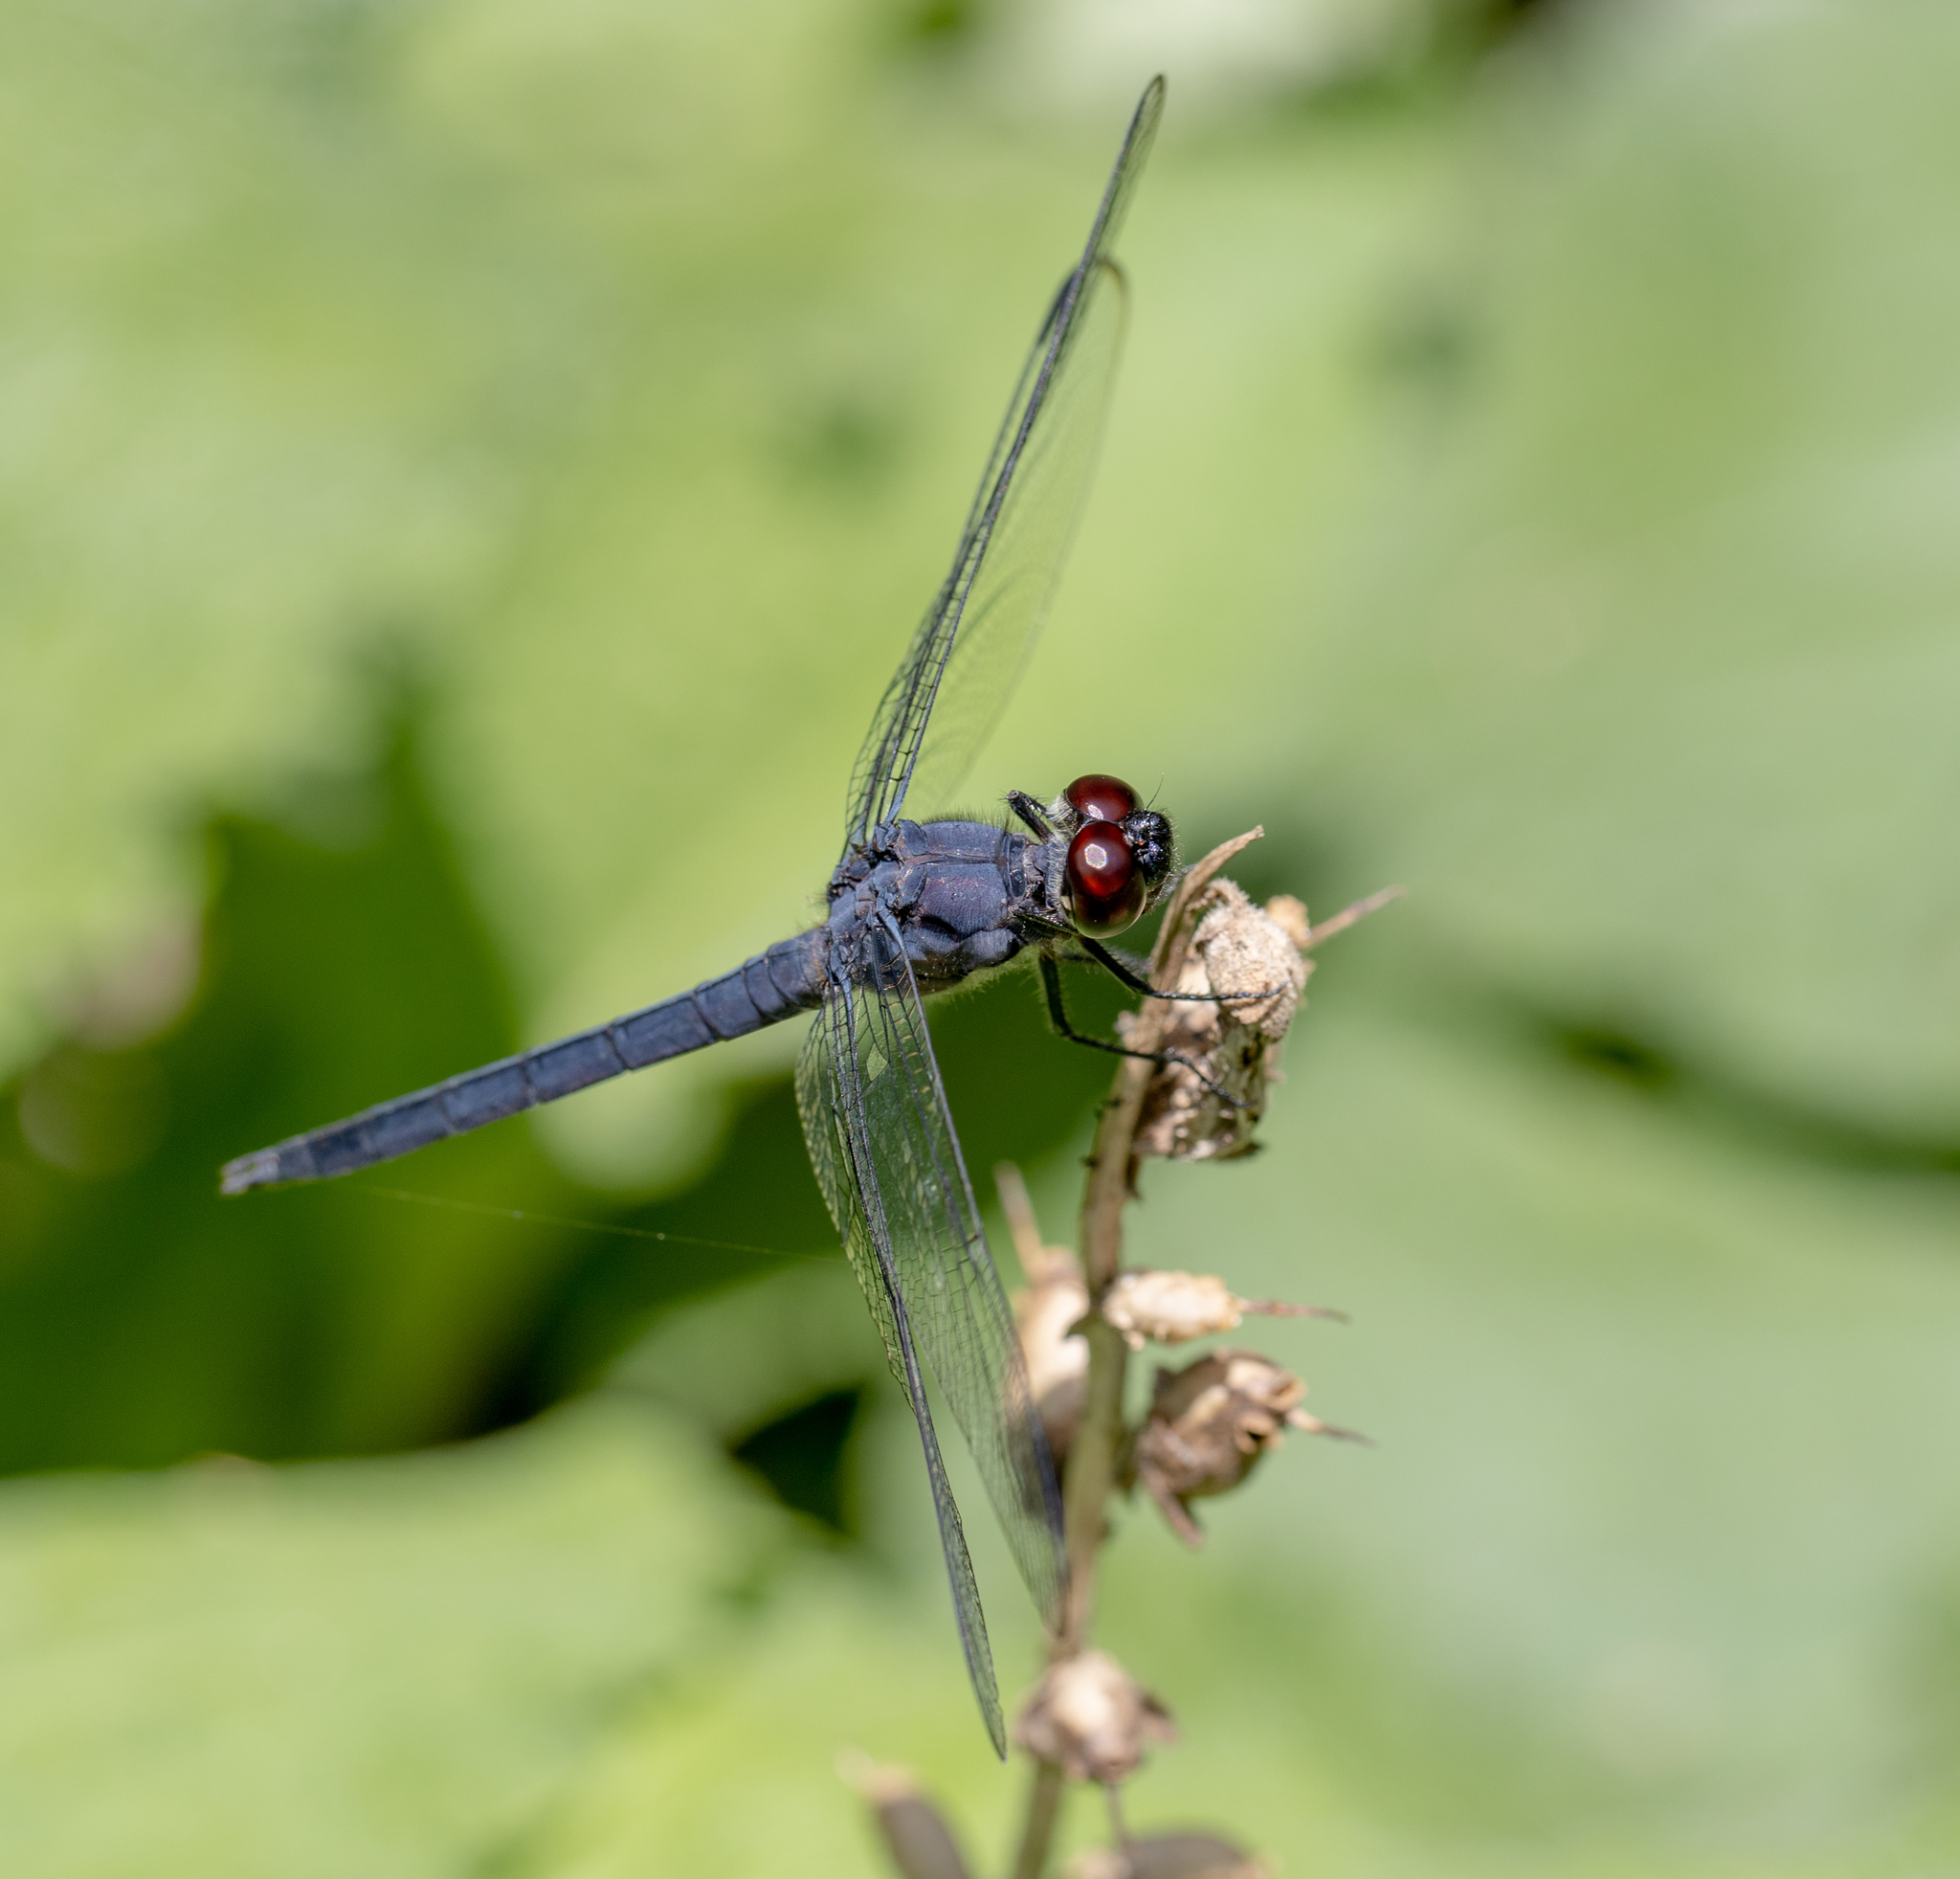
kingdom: Animalia
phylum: Arthropoda
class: Insecta
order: Odonata
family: Libellulidae
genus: Libellula
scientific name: Libellula incesta
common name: Slaty skimmer
